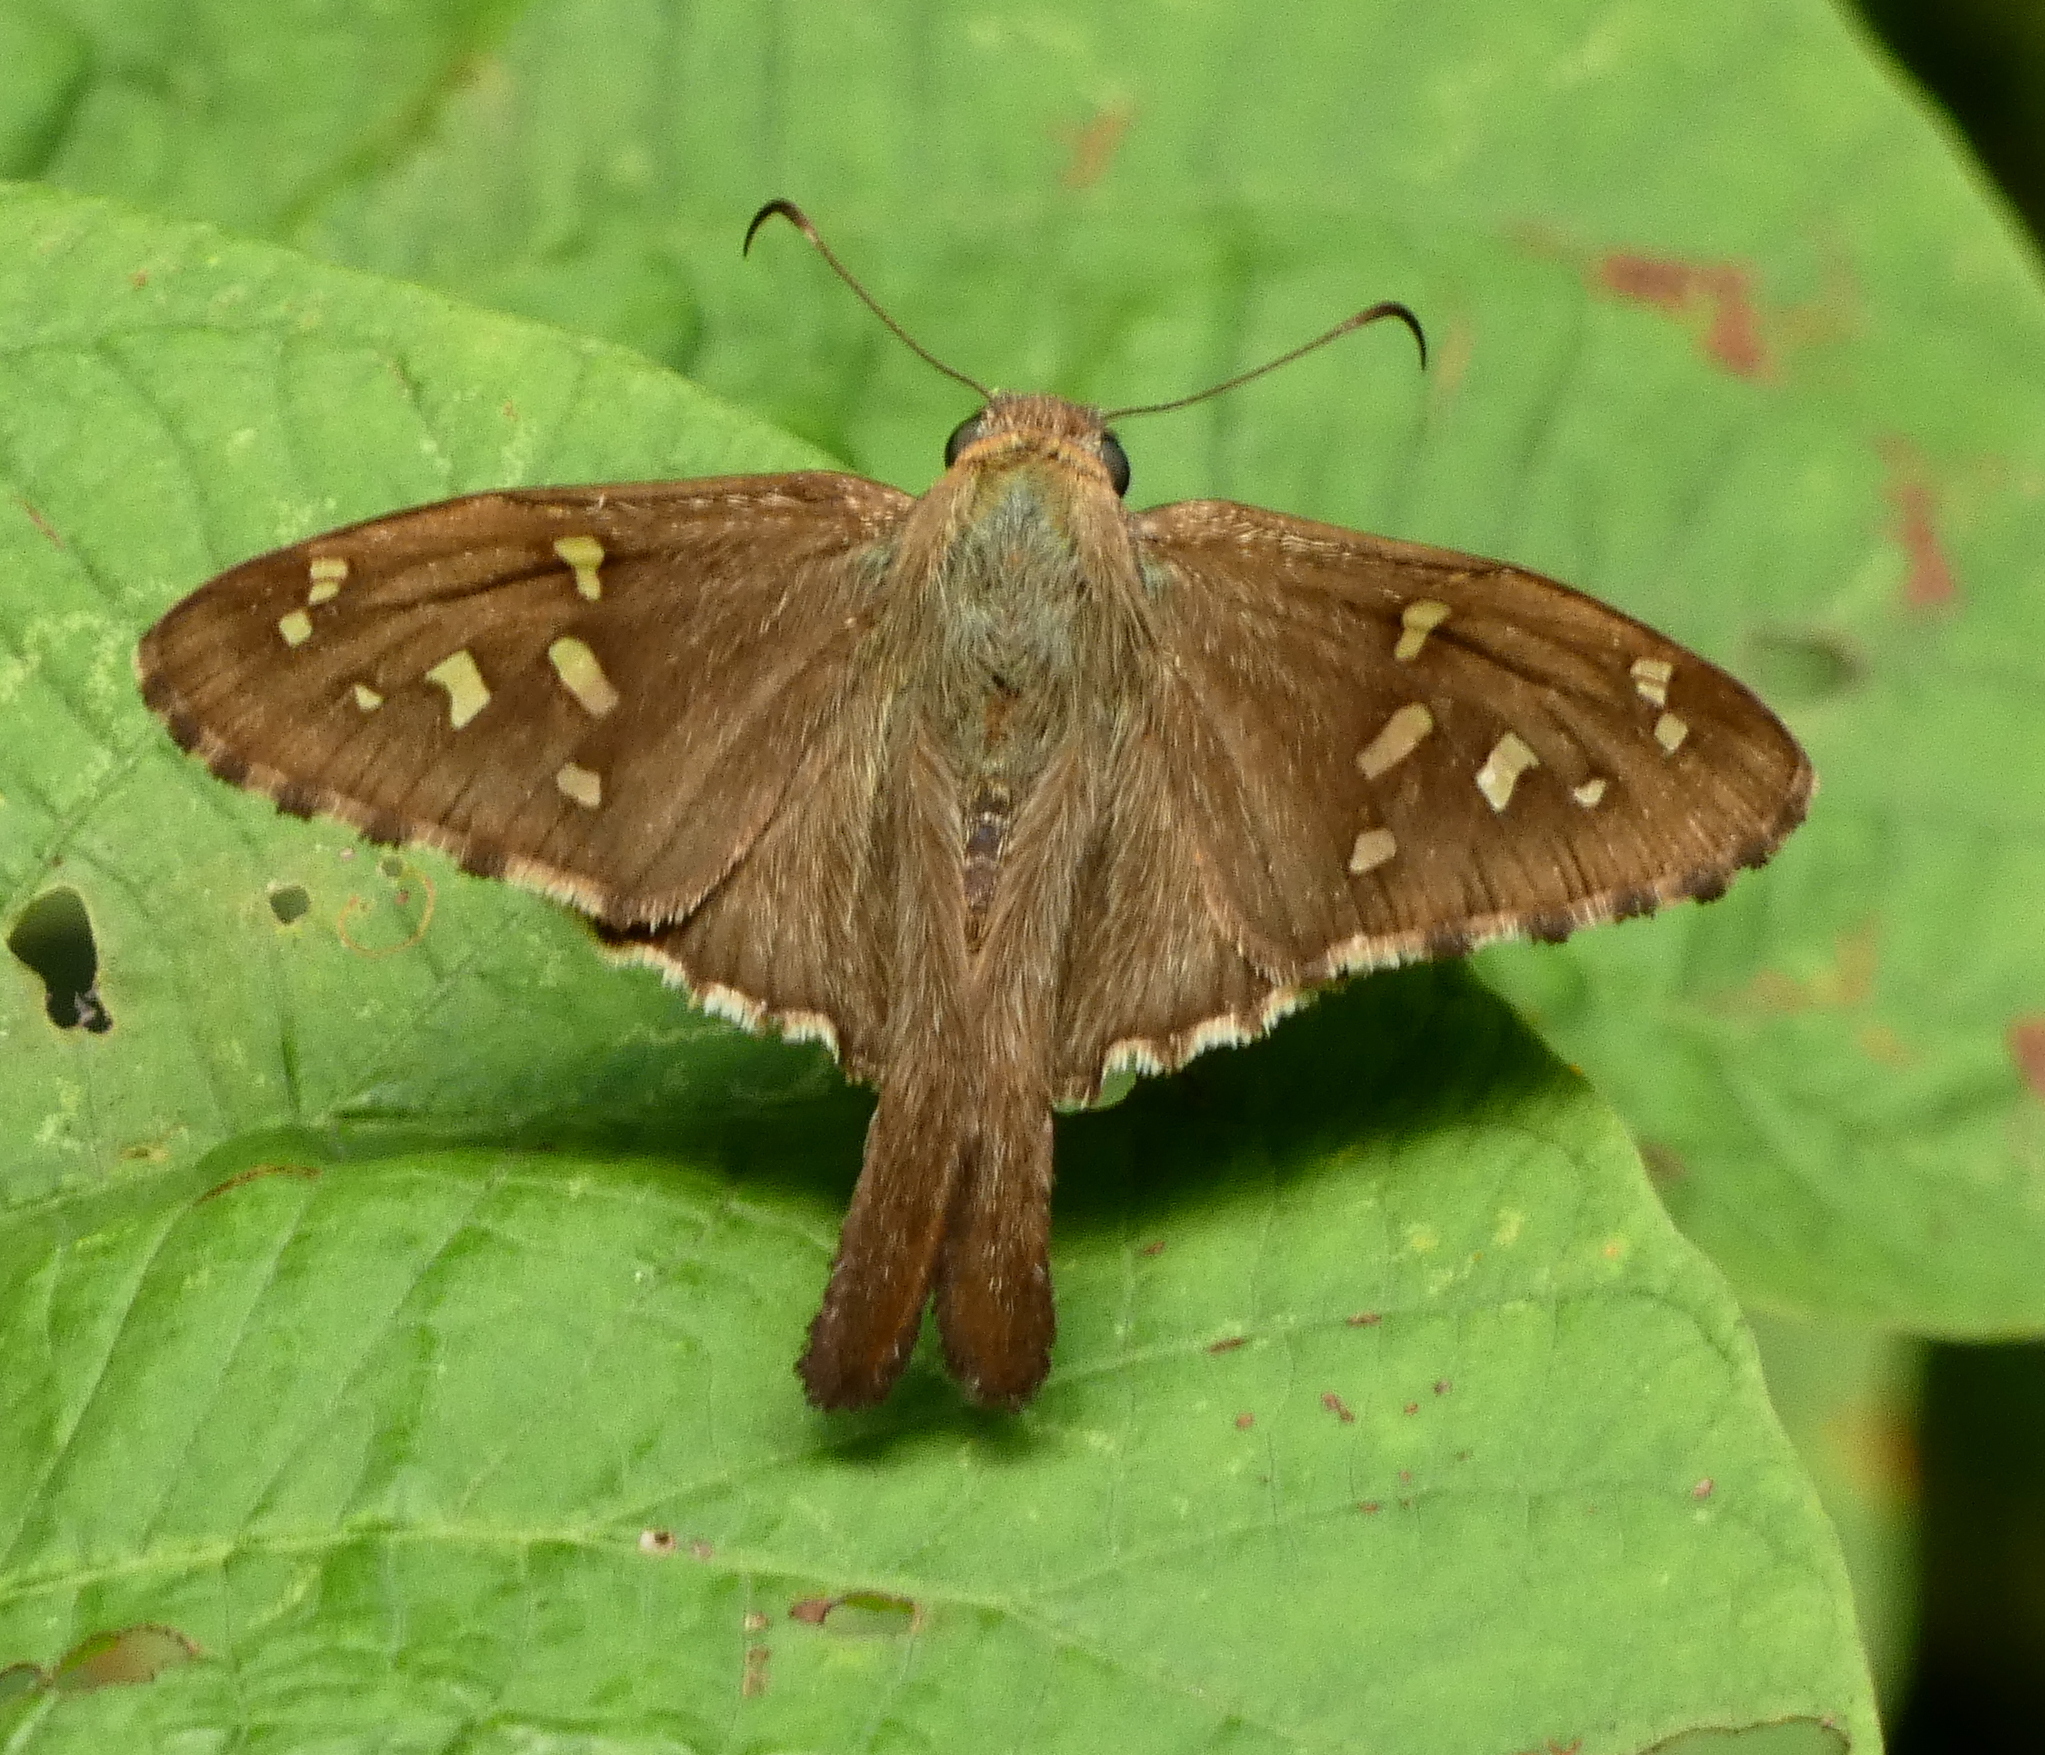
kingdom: Animalia
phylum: Arthropoda
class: Insecta
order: Lepidoptera
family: Hesperiidae
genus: Thorybes
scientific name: Thorybes
